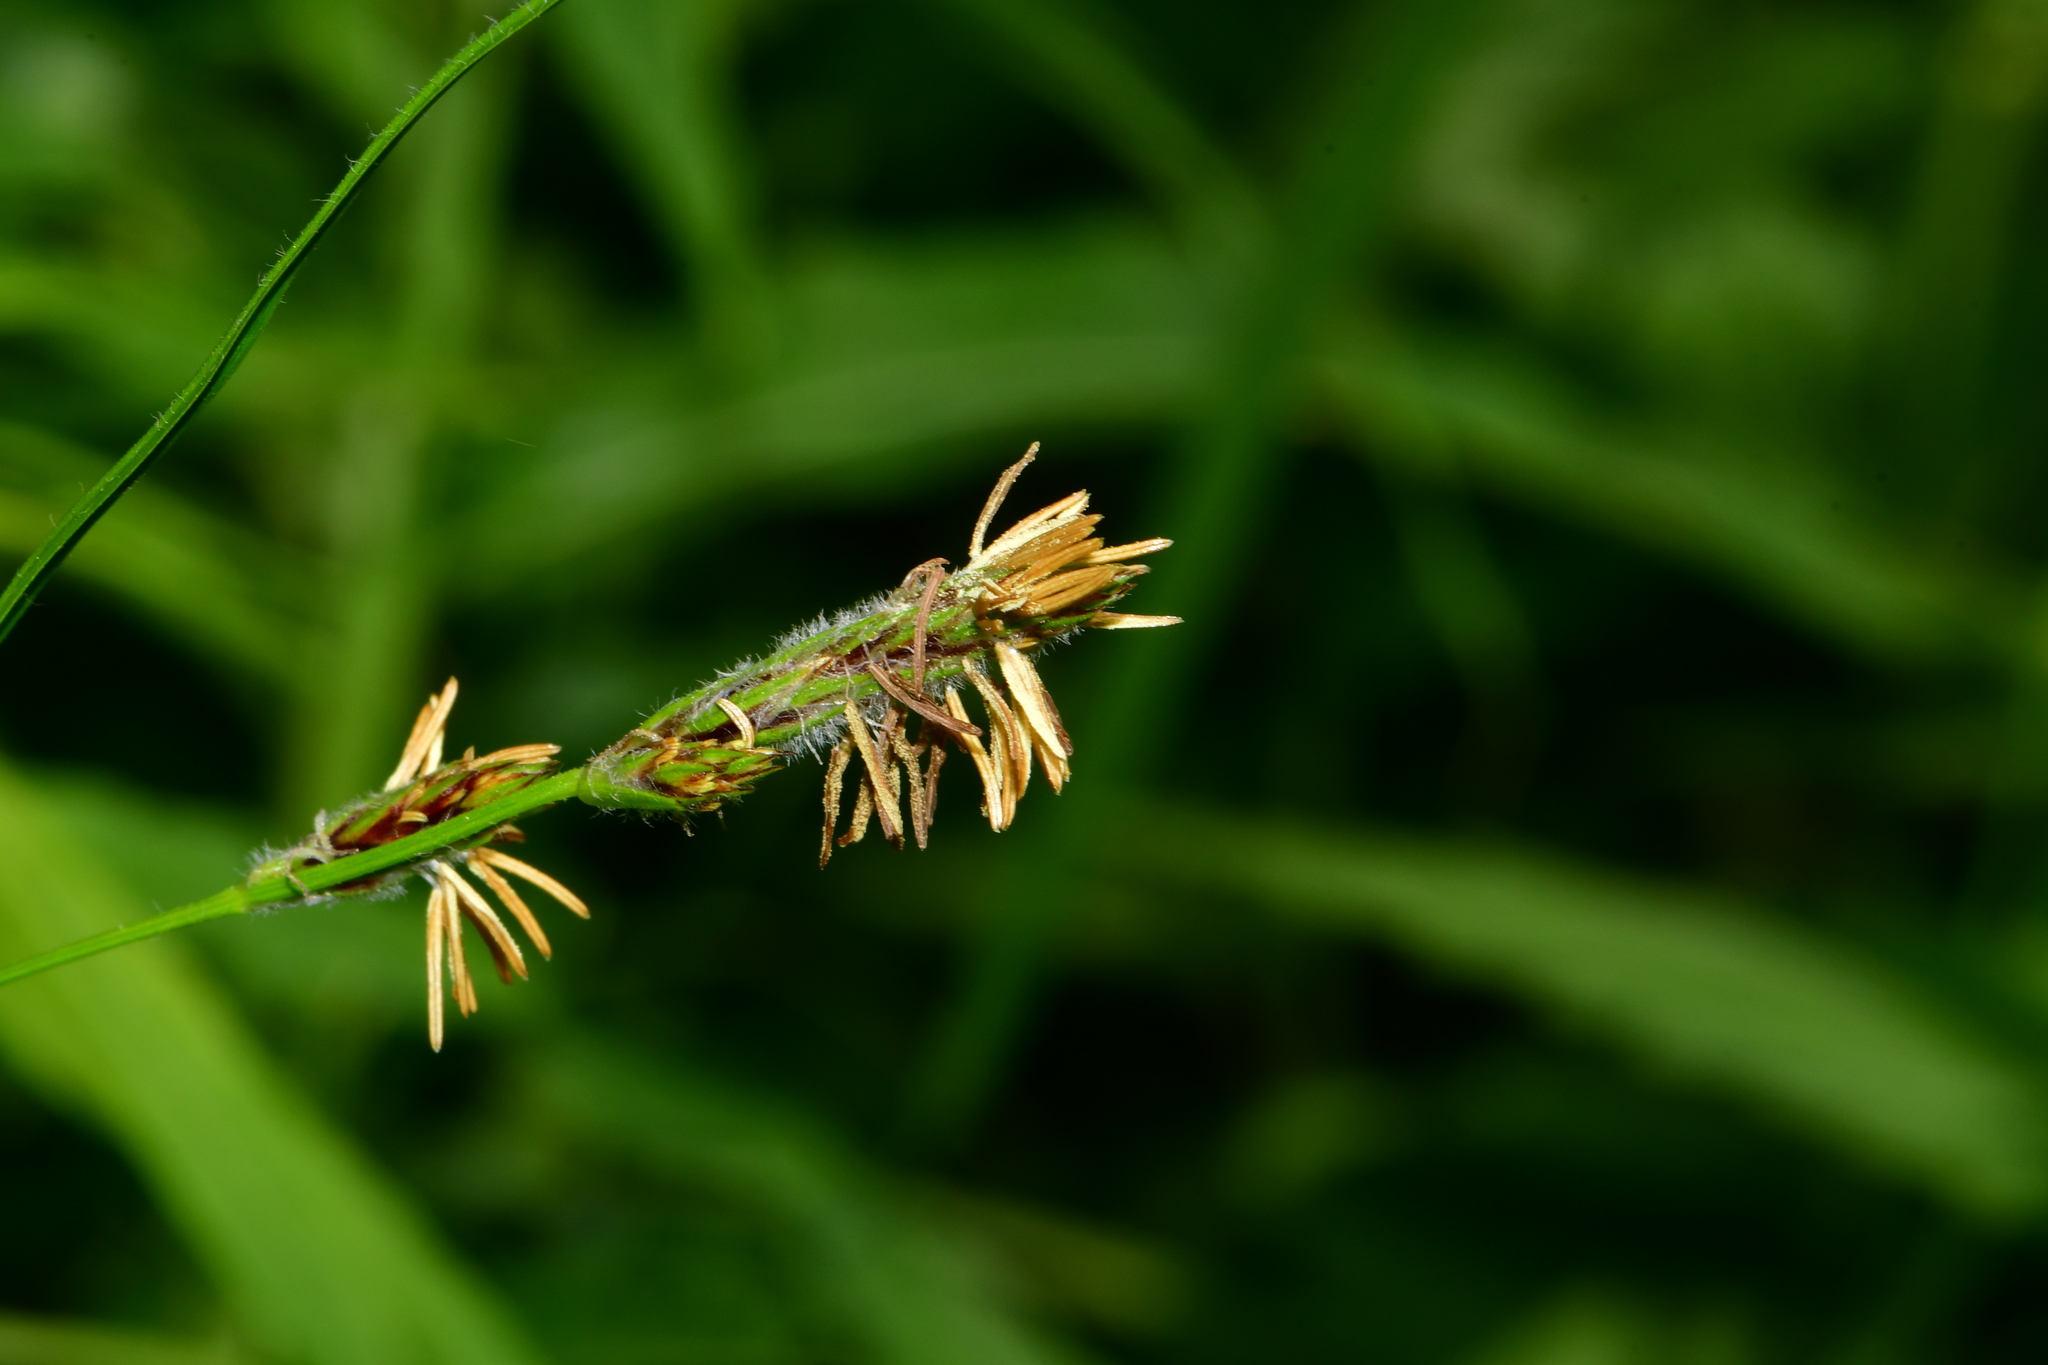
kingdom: Plantae
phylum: Tracheophyta
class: Liliopsida
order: Poales
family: Cyperaceae
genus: Carex
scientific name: Carex hirta
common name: Hairy sedge
